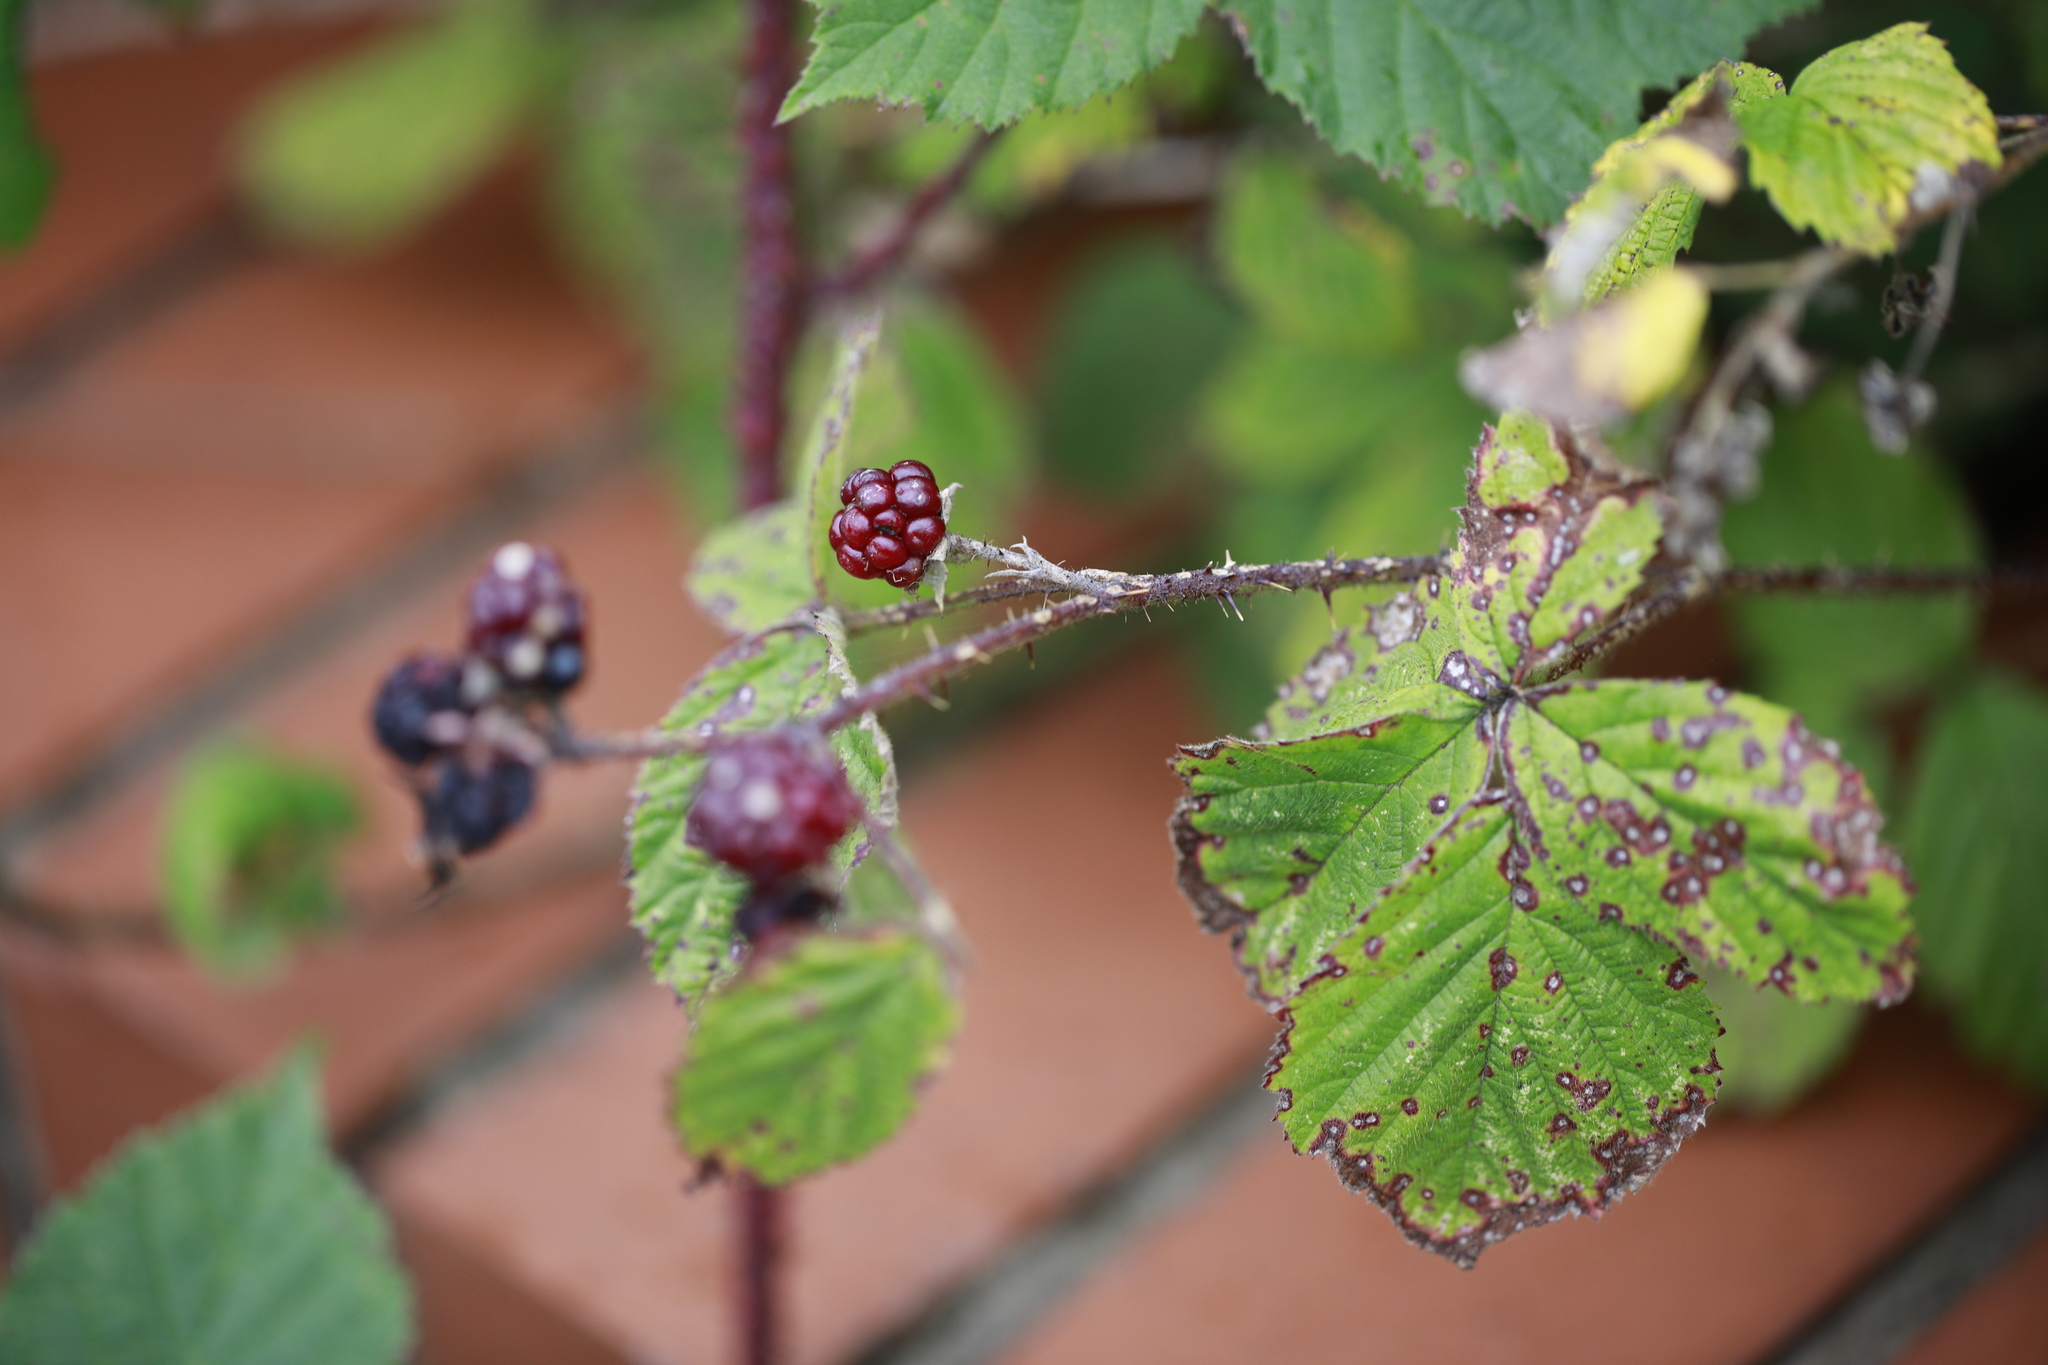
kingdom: Plantae
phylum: Tracheophyta
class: Magnoliopsida
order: Rosales
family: Rosaceae
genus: Rubus
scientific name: Rubus horrefactus
